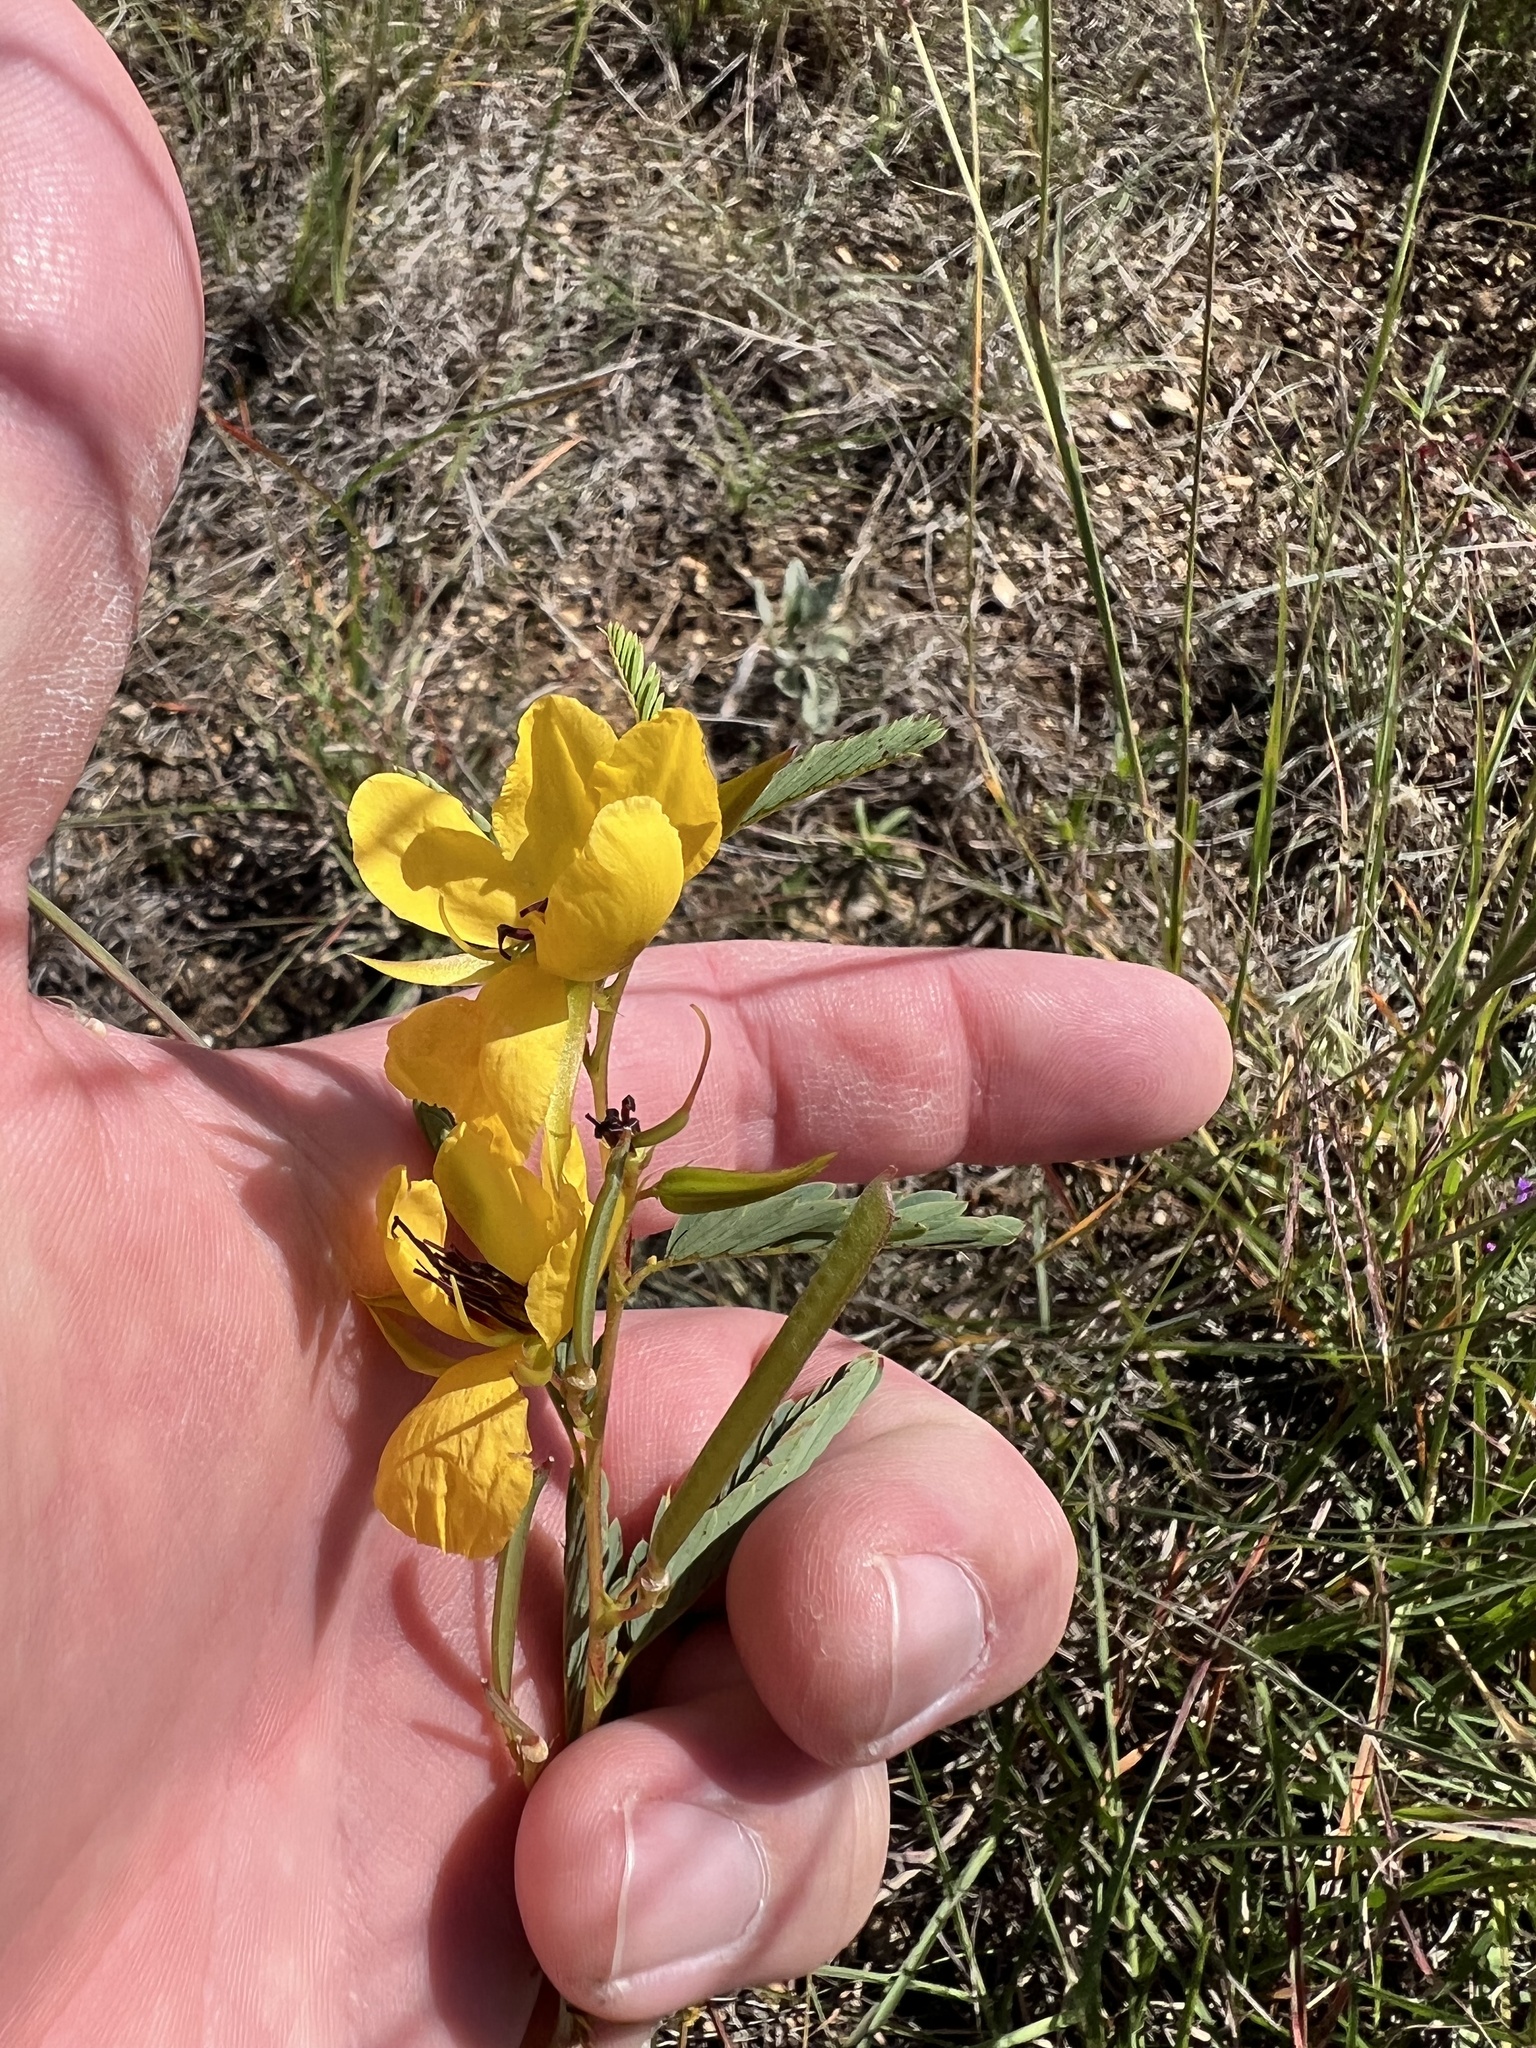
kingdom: Plantae
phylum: Tracheophyta
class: Magnoliopsida
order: Fabales
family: Fabaceae
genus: Chamaecrista
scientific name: Chamaecrista fasciculata
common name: Golden cassia
